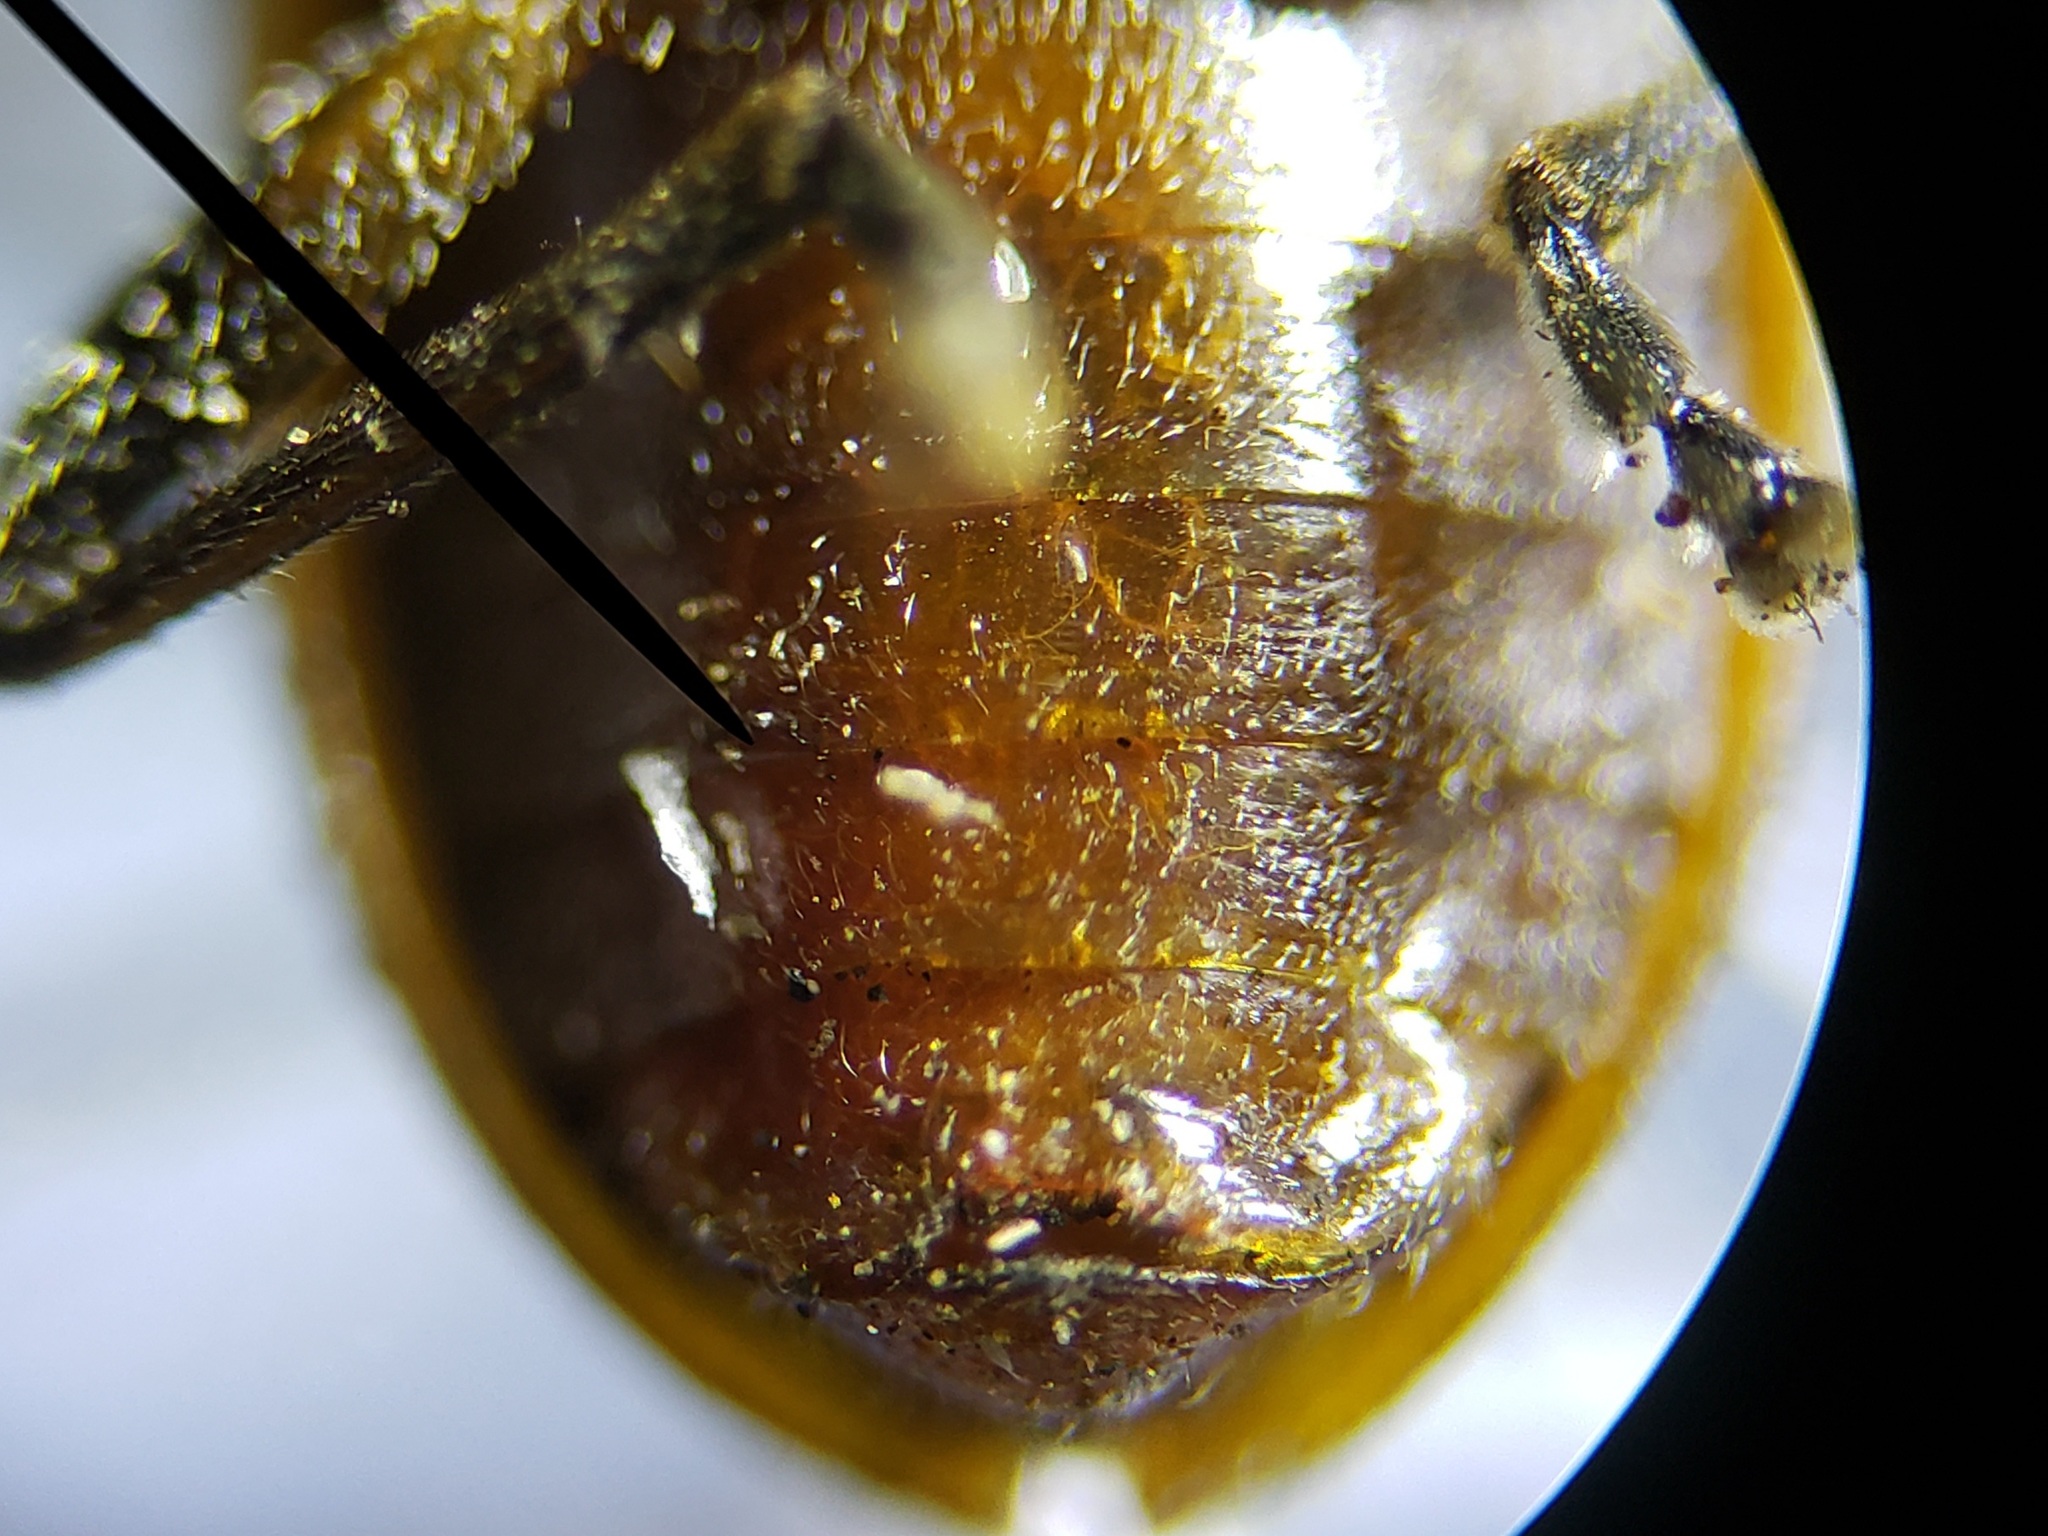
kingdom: Animalia
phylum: Arthropoda
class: Insecta
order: Coleoptera
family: Chrysomelidae
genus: Neolochmaea
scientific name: Neolochmaea dilatipennis
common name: Skeletonizing leaf beetle
